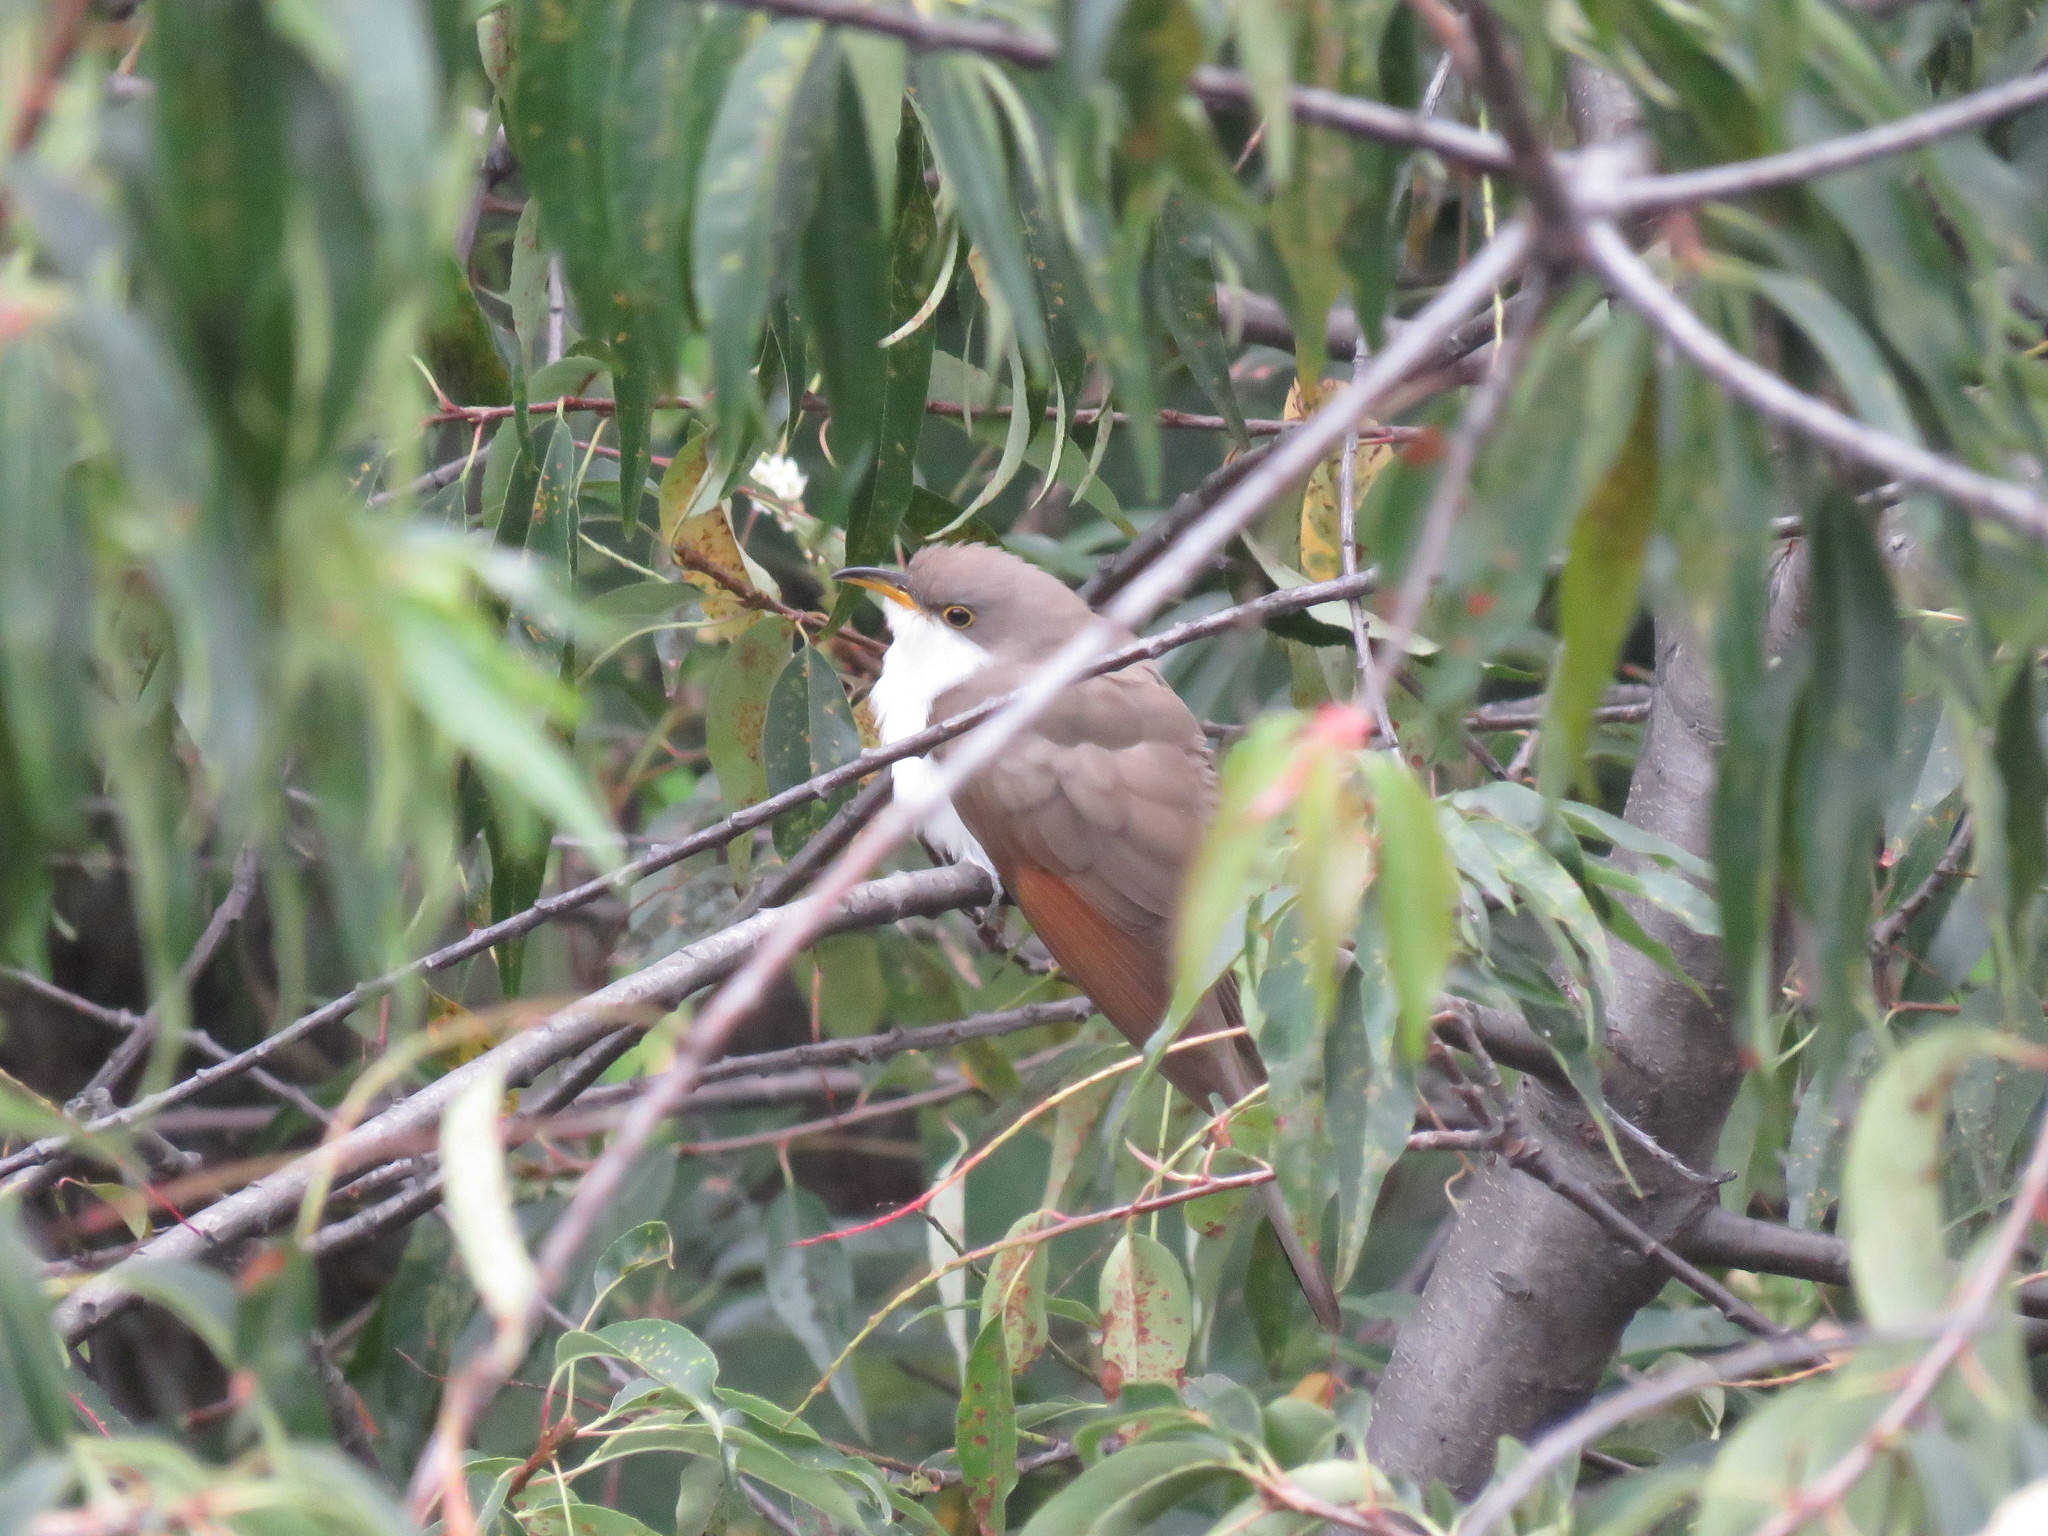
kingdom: Animalia
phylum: Chordata
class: Aves
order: Cuculiformes
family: Cuculidae
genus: Coccyzus
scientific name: Coccyzus americanus
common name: Yellow-billed cuckoo
